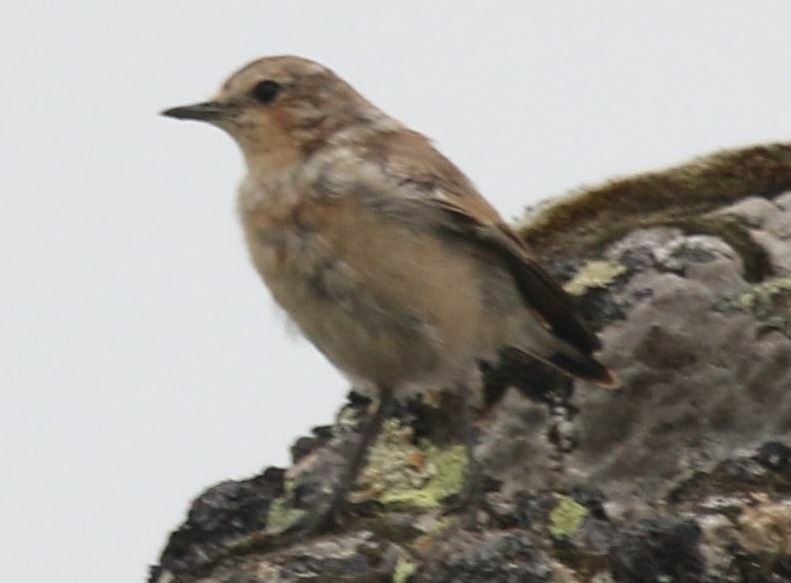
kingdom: Animalia
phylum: Chordata
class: Aves
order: Passeriformes
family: Muscicapidae
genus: Oenanthe
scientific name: Oenanthe oenanthe
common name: Northern wheatear
